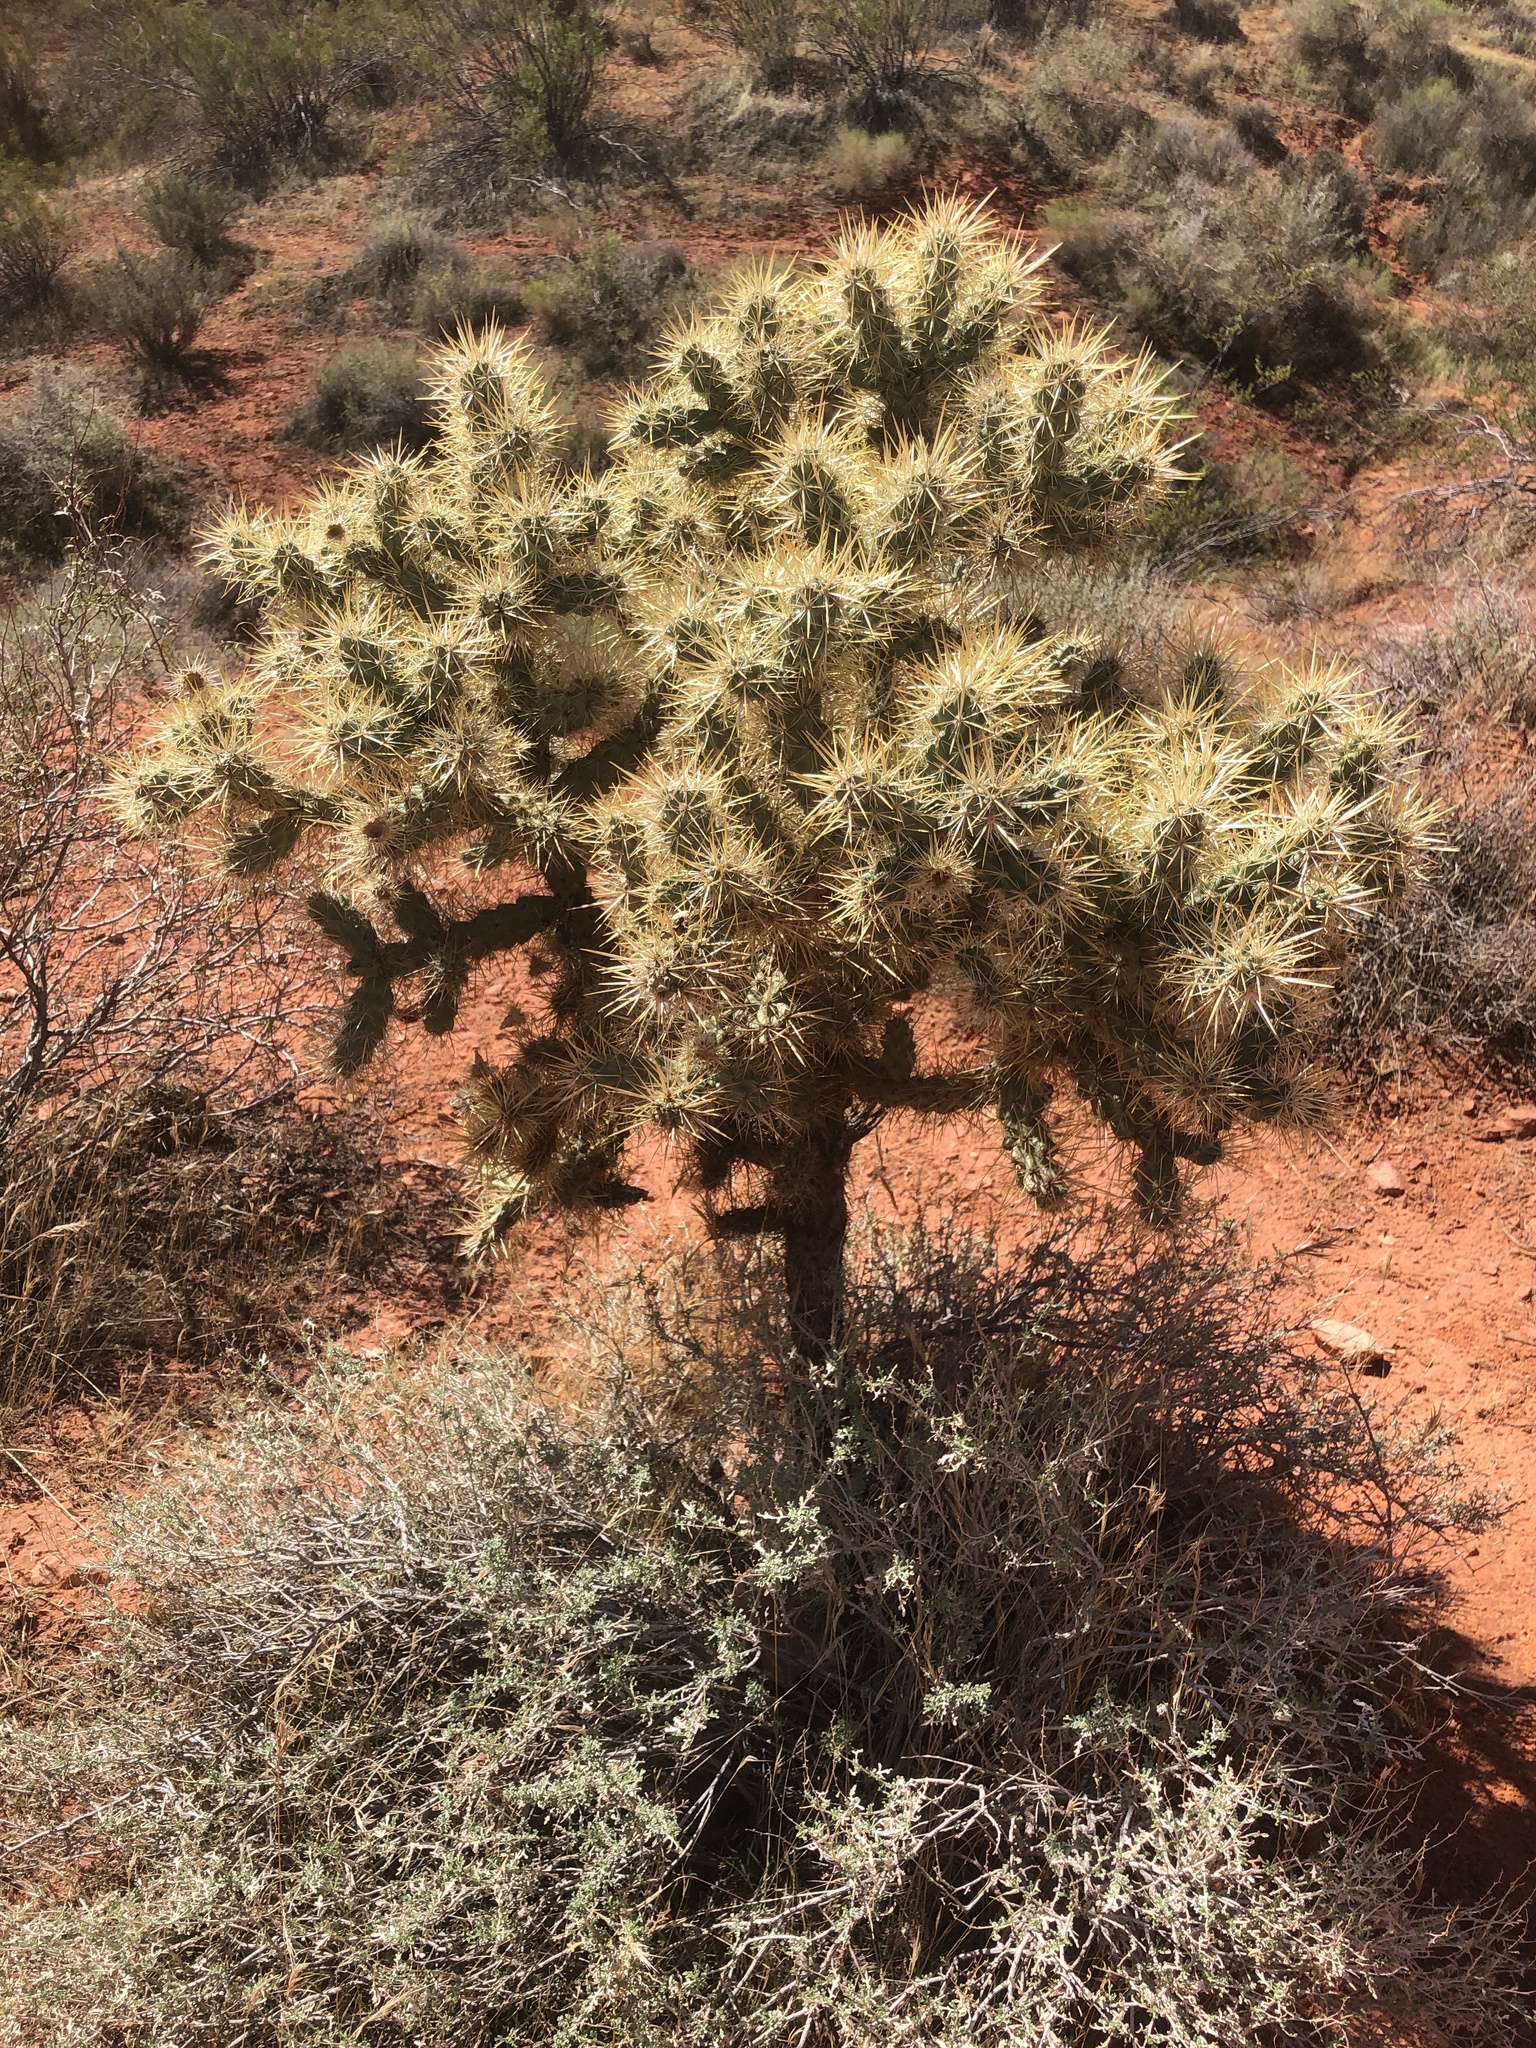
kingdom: Plantae
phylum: Tracheophyta
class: Magnoliopsida
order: Caryophyllales
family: Cactaceae
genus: Cylindropuntia
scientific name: Cylindropuntia echinocarpa
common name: Ground cholla
